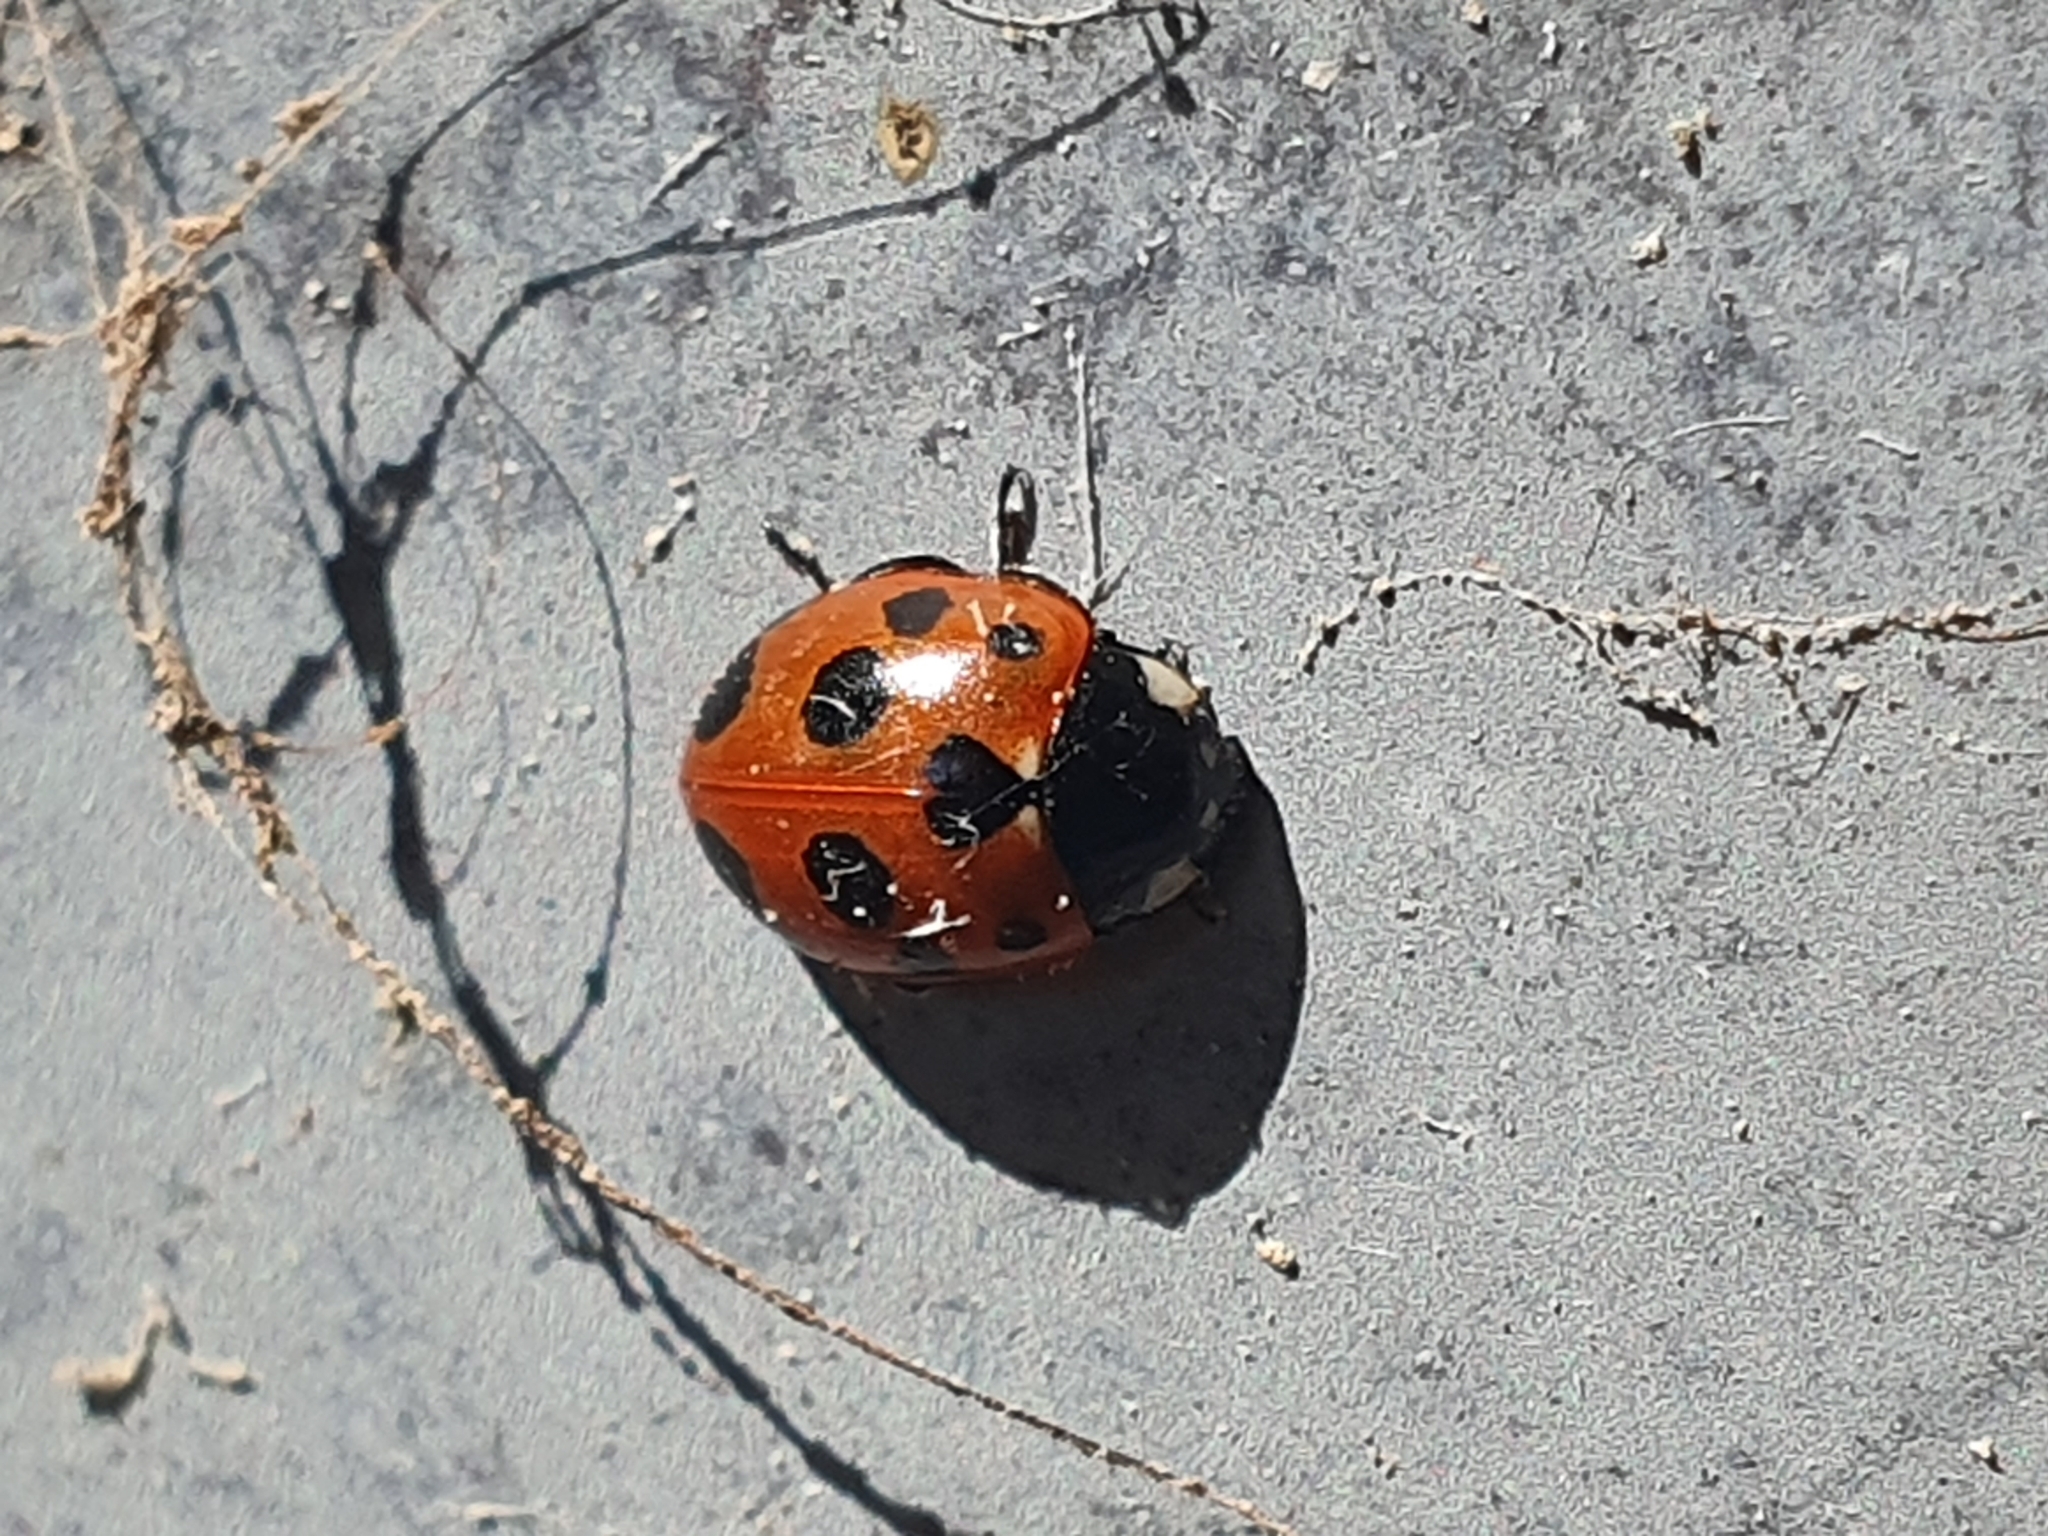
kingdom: Animalia
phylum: Arthropoda
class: Insecta
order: Coleoptera
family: Coccinellidae
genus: Coccinella
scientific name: Coccinella undecimpunctata
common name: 11-spot ladybird
